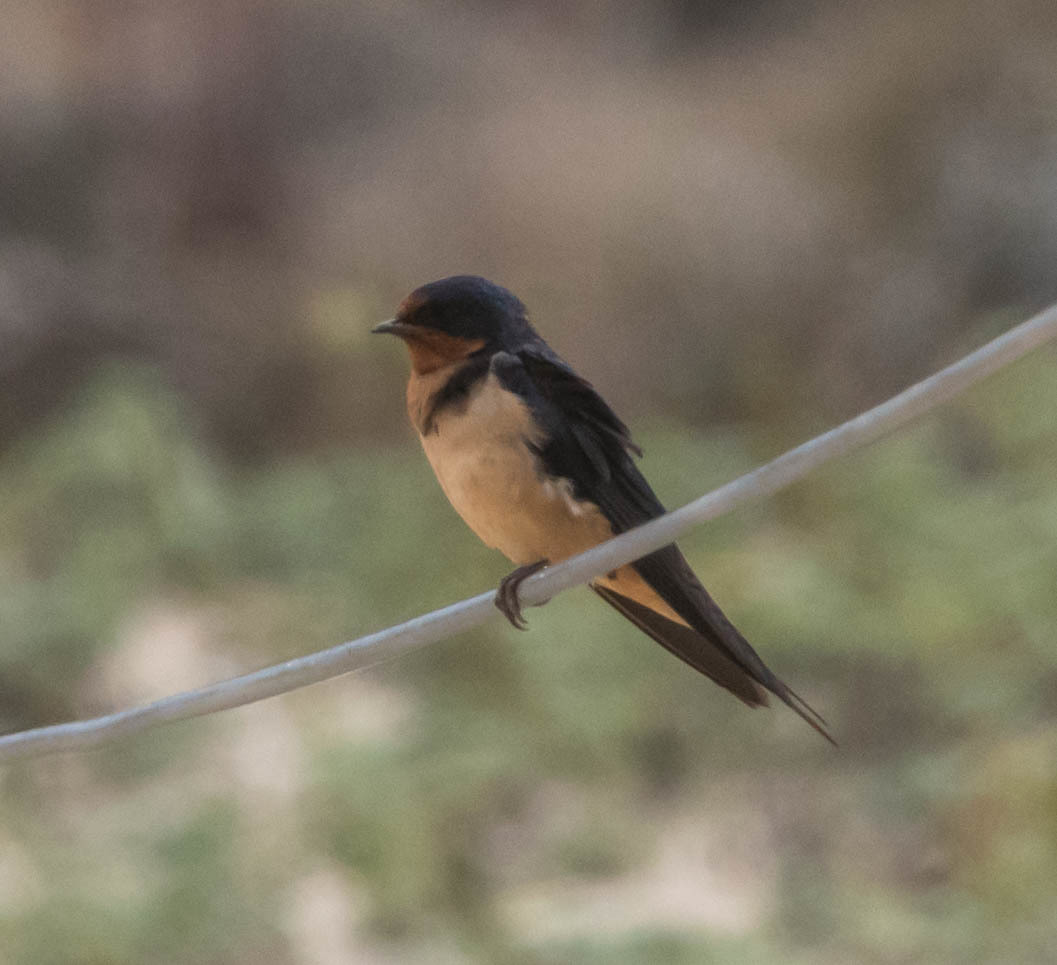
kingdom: Animalia
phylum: Chordata
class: Aves
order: Passeriformes
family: Hirundinidae
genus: Hirundo
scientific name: Hirundo rustica
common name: Barn swallow
